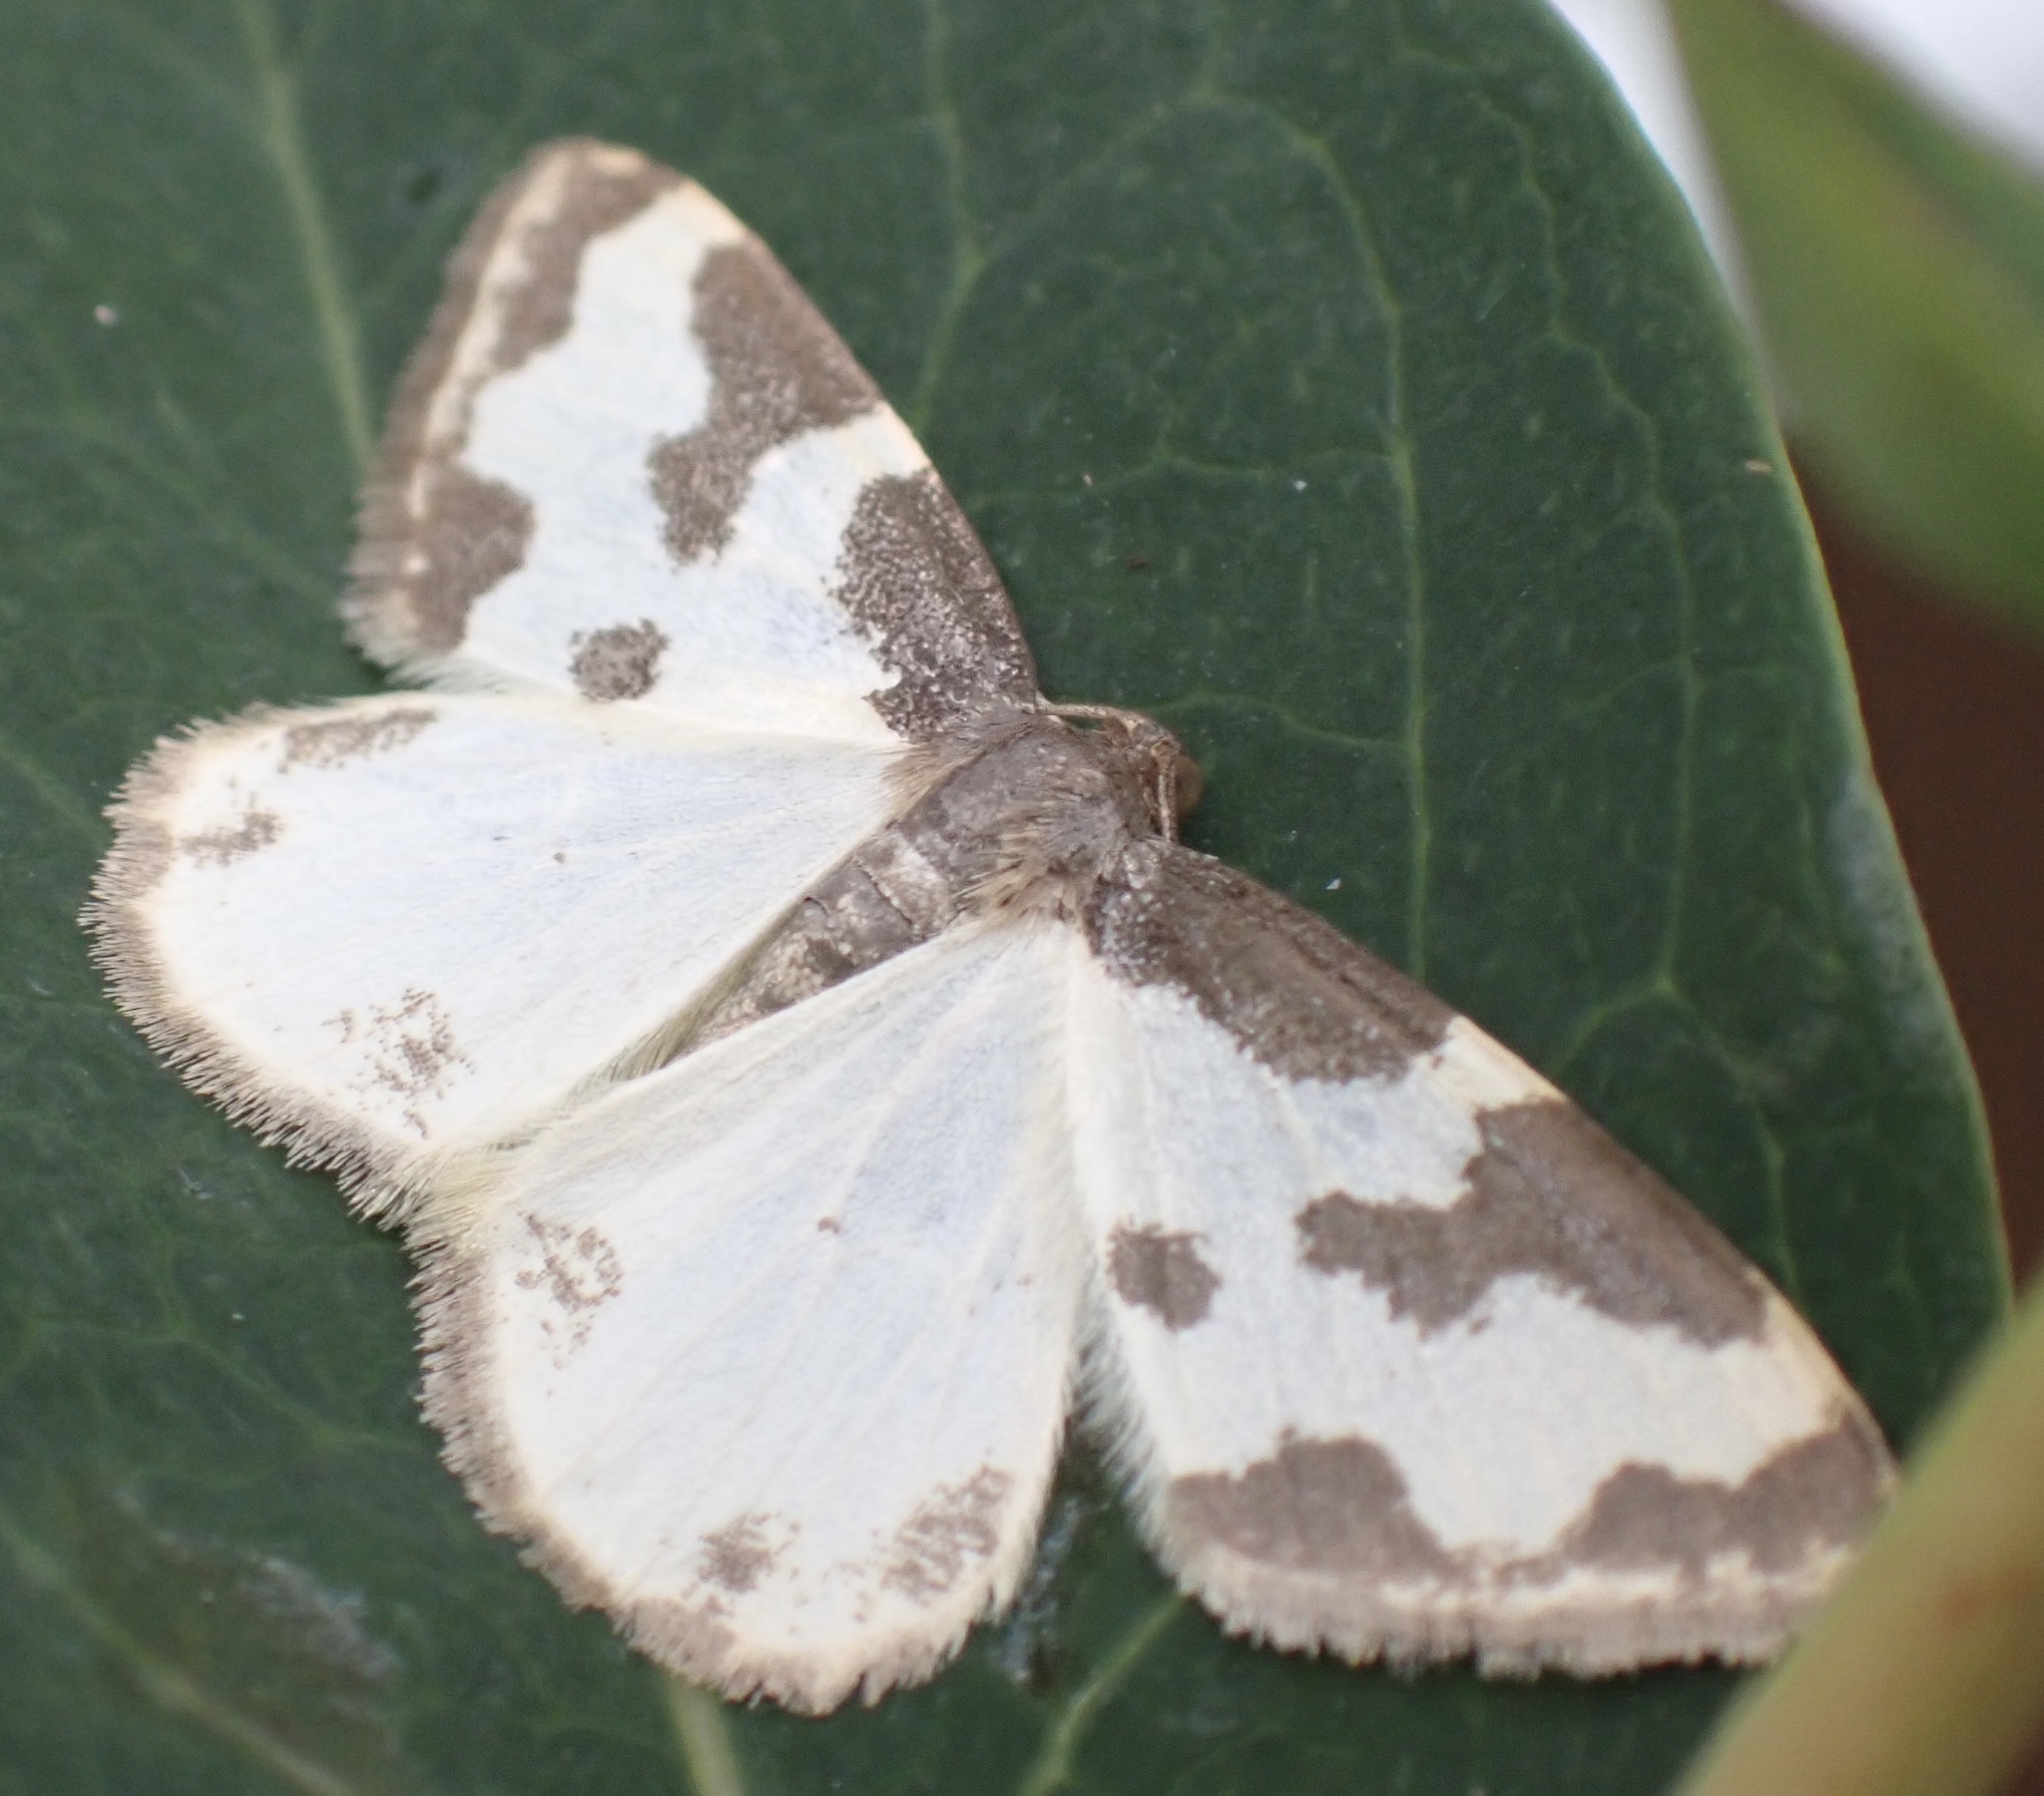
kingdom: Animalia
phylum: Arthropoda
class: Insecta
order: Lepidoptera
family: Geometridae
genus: Lomaspilis
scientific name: Lomaspilis marginata
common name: Clouded border
